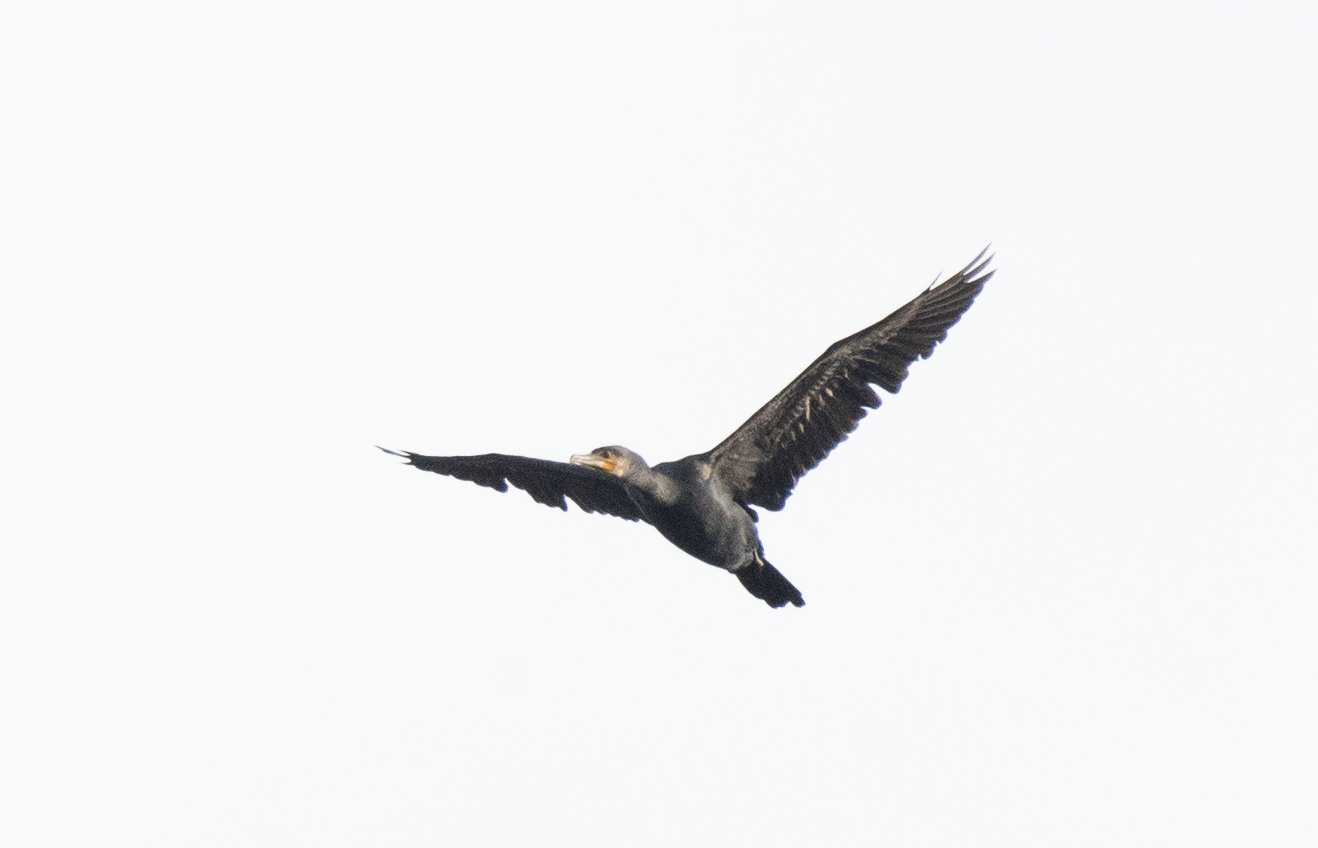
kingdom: Animalia
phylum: Chordata
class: Aves
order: Suliformes
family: Phalacrocoracidae
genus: Phalacrocorax
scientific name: Phalacrocorax carbo
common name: Great cormorant
